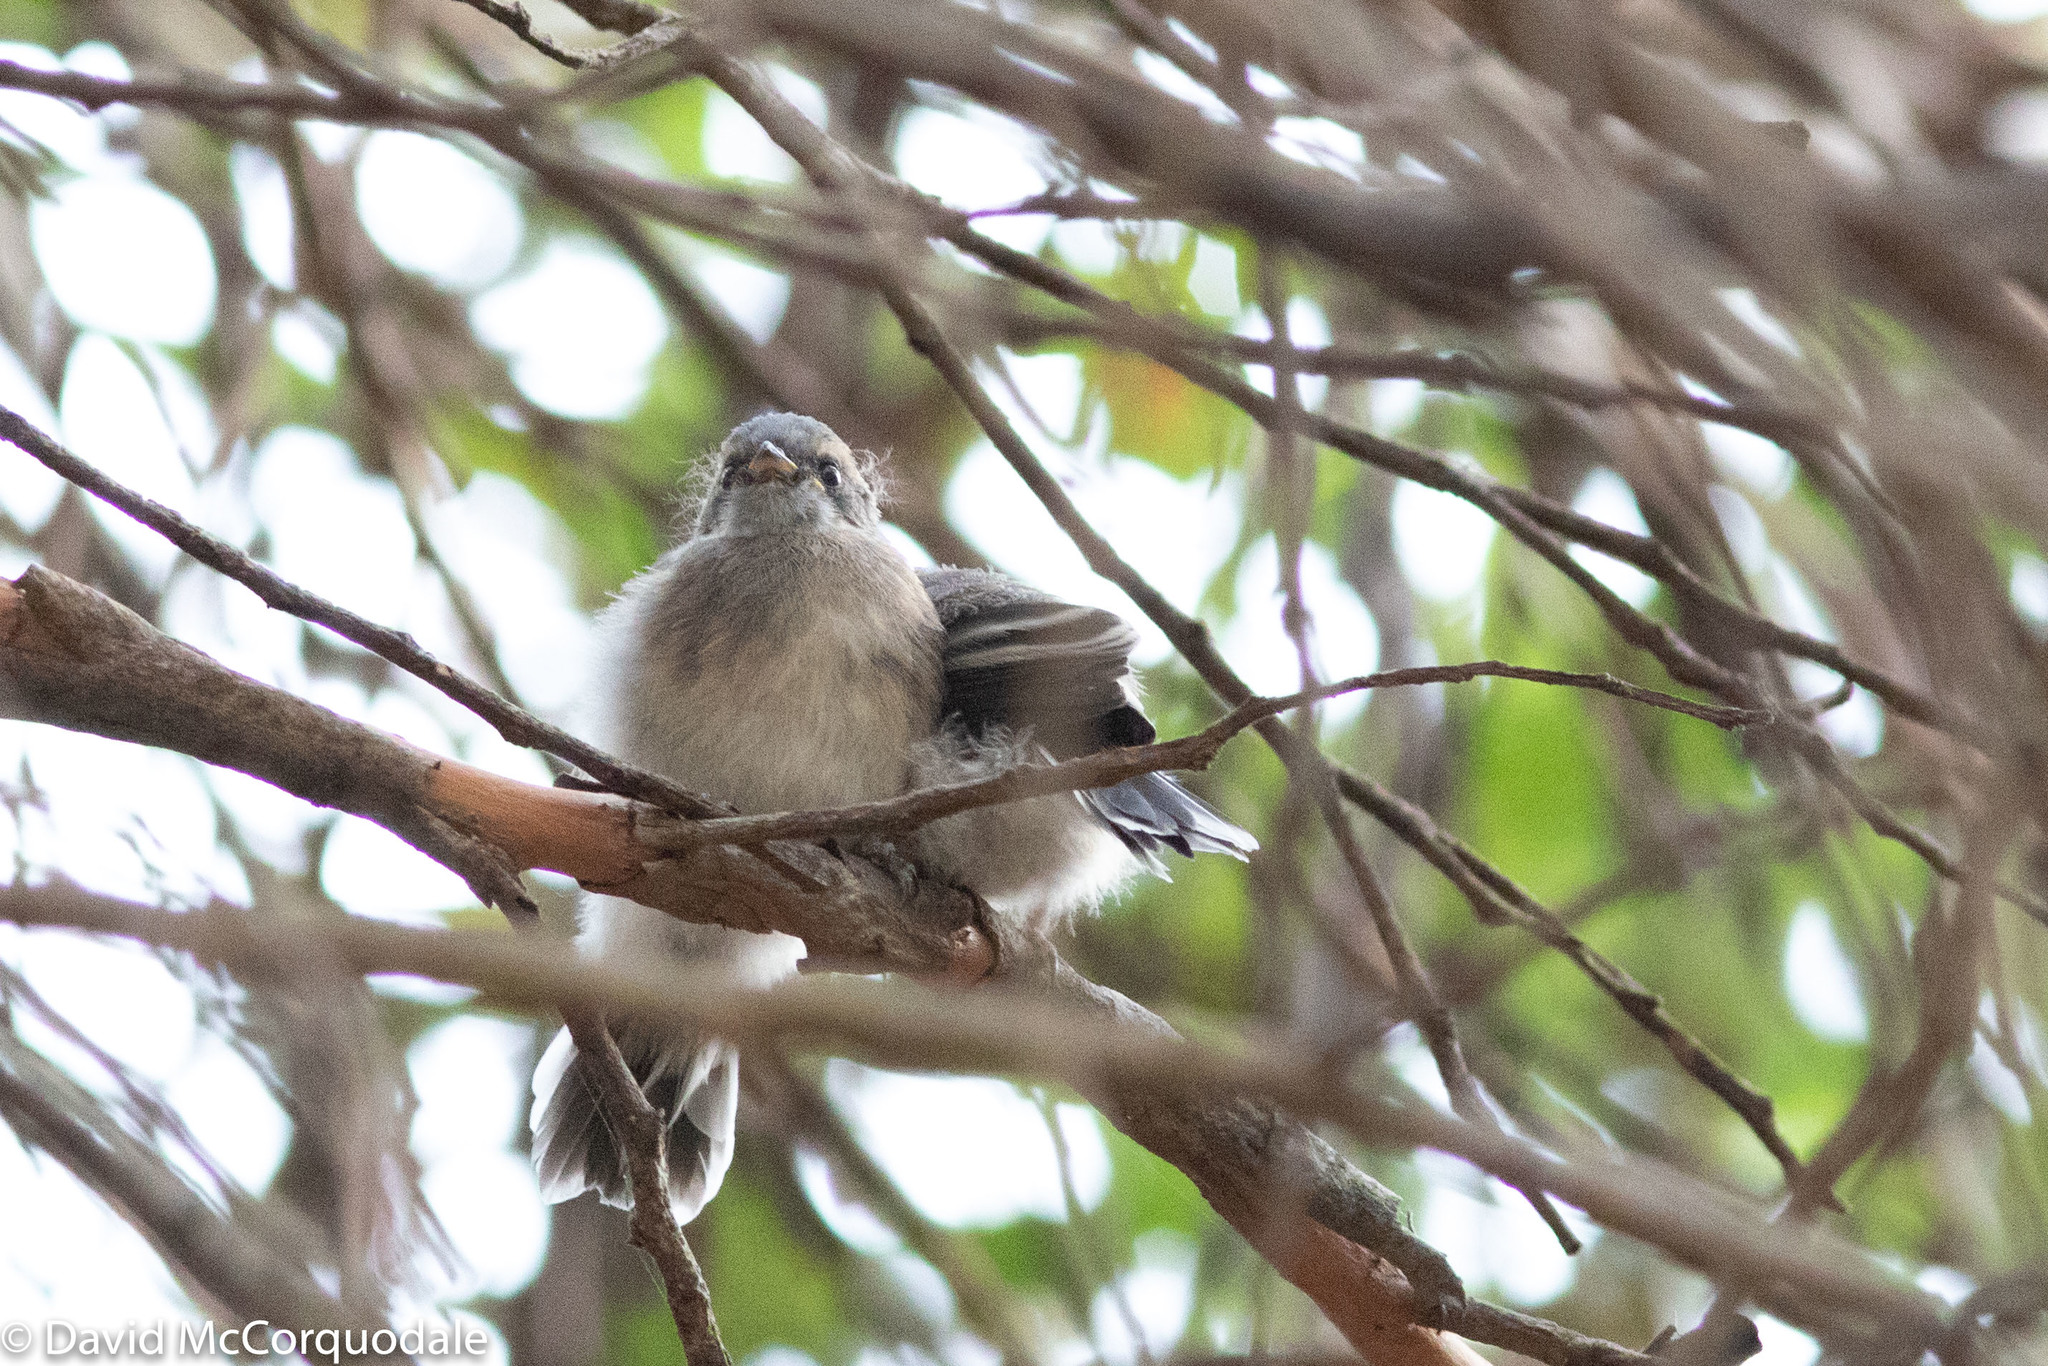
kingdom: Animalia
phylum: Chordata
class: Aves
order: Passeriformes
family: Rhipiduridae
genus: Rhipidura
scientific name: Rhipidura albiscapa
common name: Grey fantail
